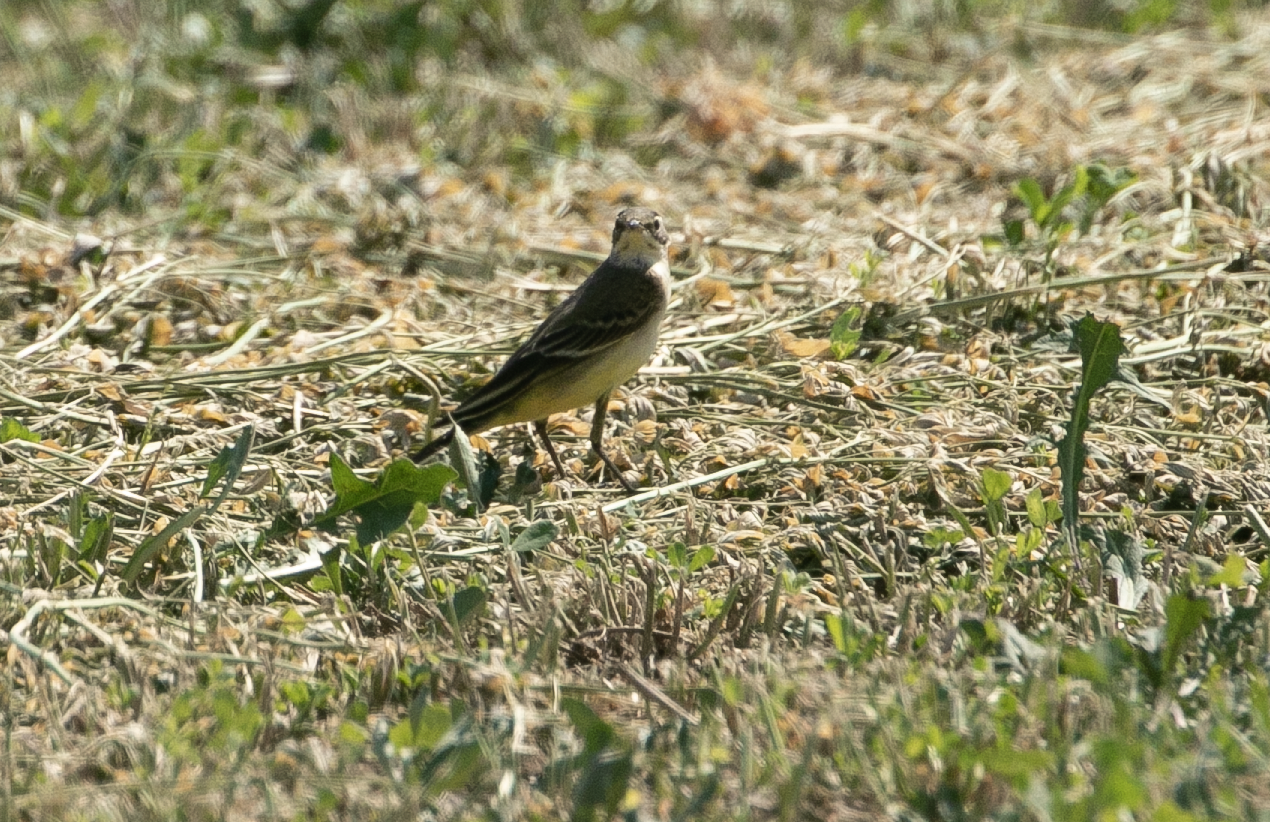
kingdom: Animalia
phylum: Chordata
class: Aves
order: Passeriformes
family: Motacillidae
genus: Motacilla
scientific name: Motacilla flava
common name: Western yellow wagtail
